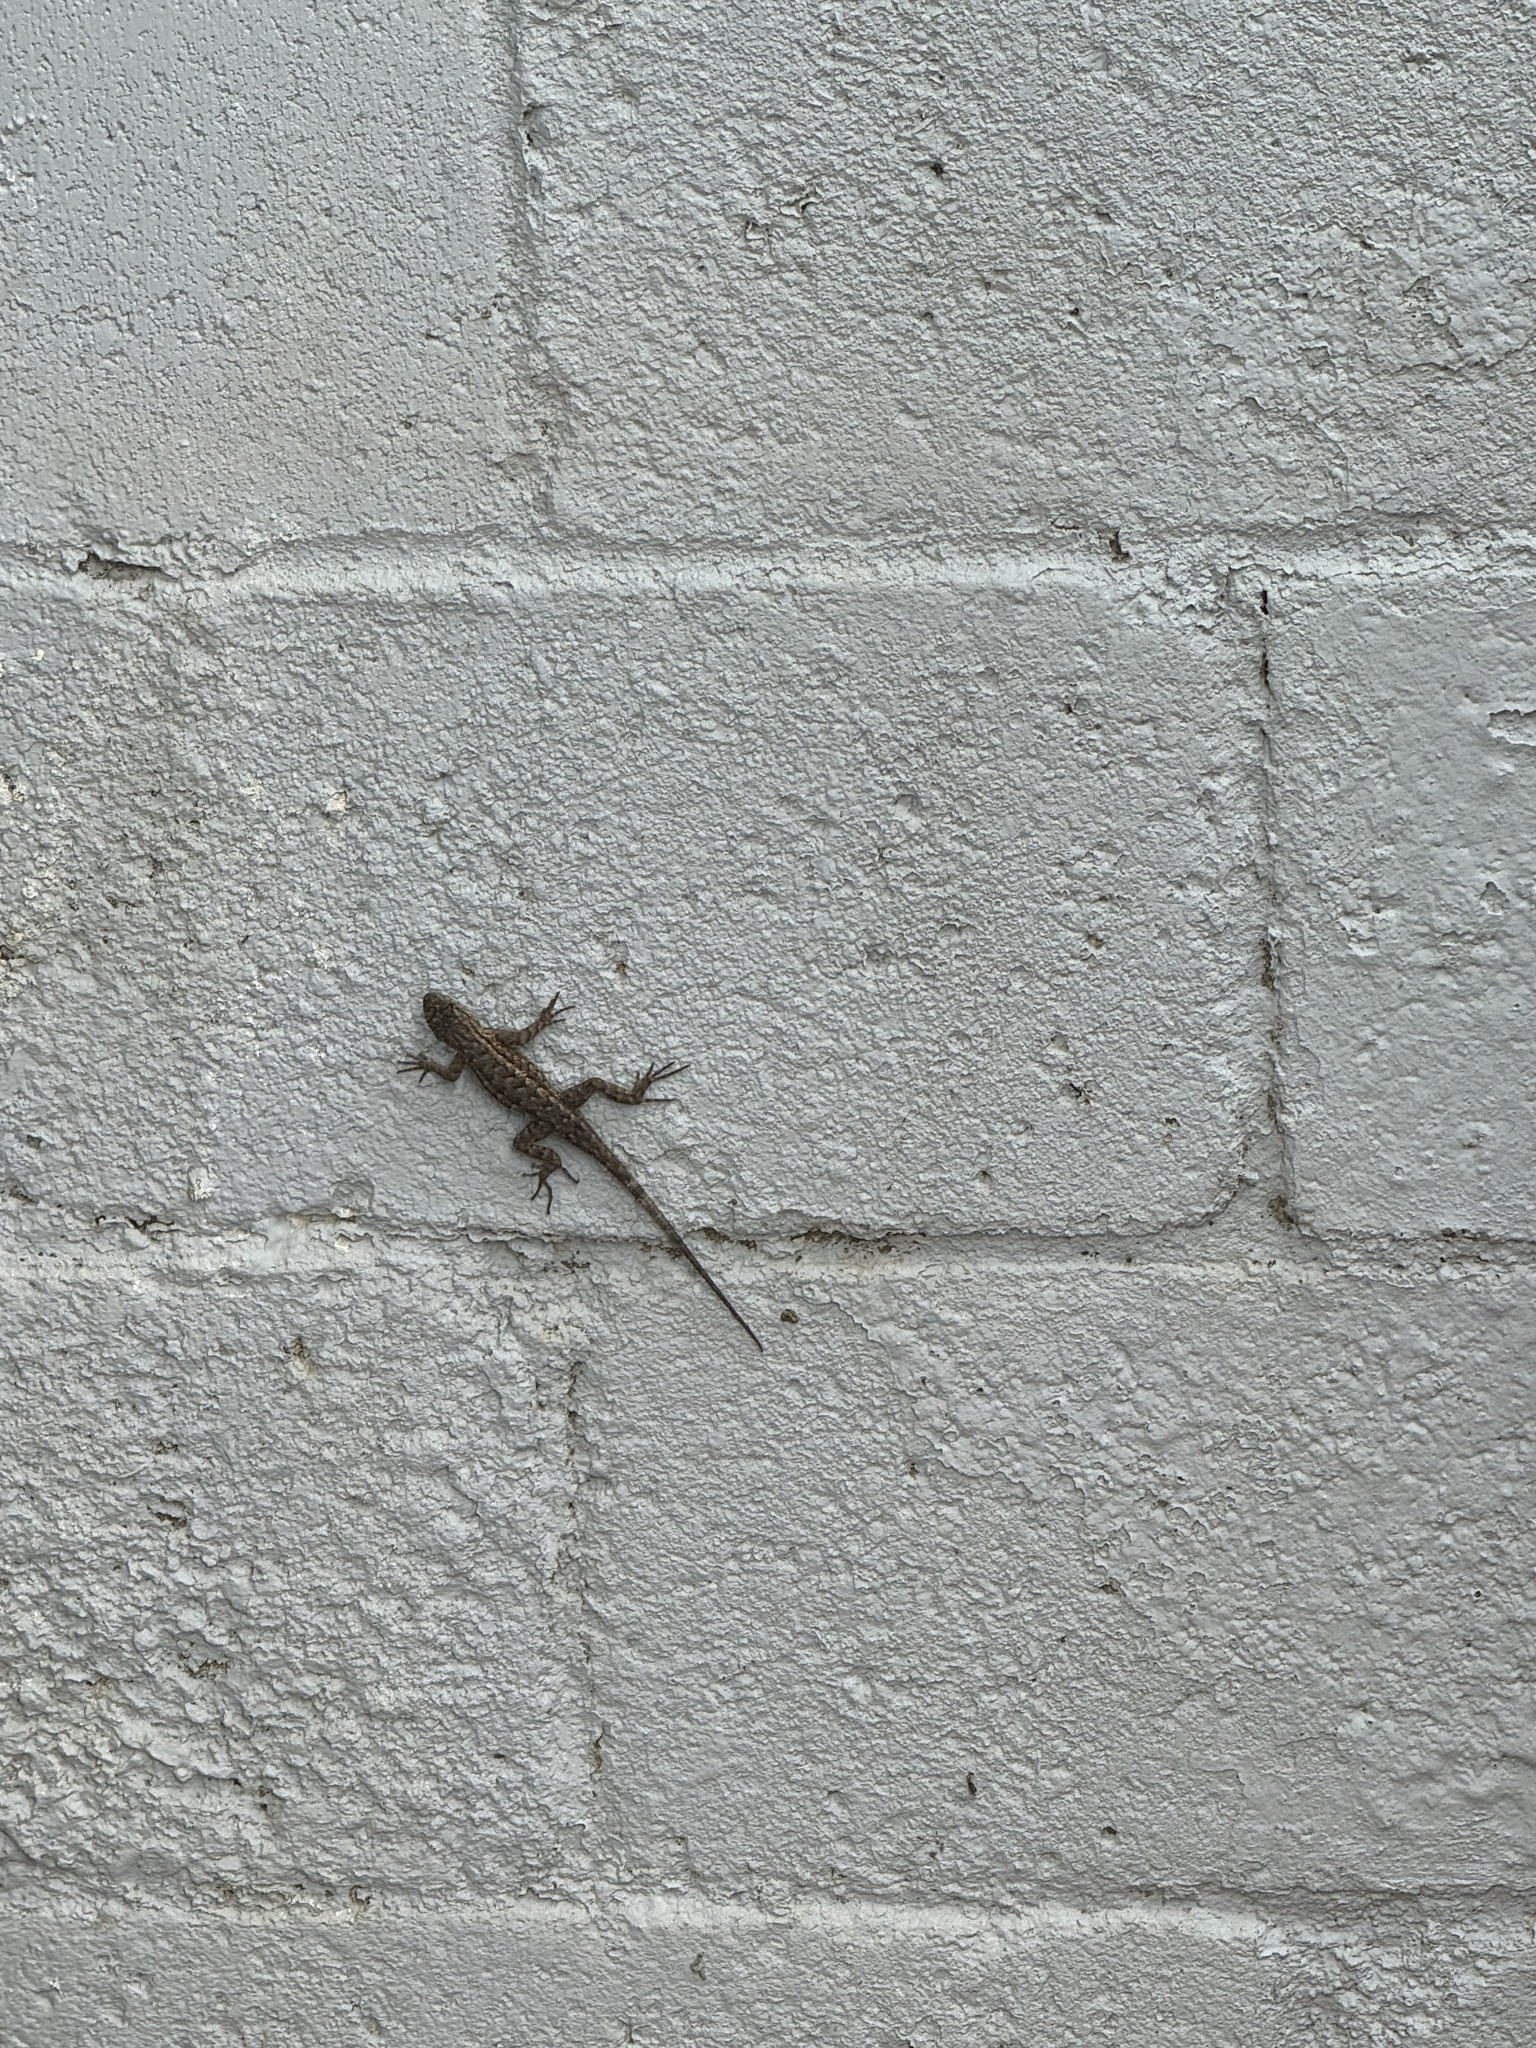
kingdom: Animalia
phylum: Chordata
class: Squamata
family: Phrynosomatidae
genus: Sceloporus
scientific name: Sceloporus occidentalis
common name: Western fence lizard
